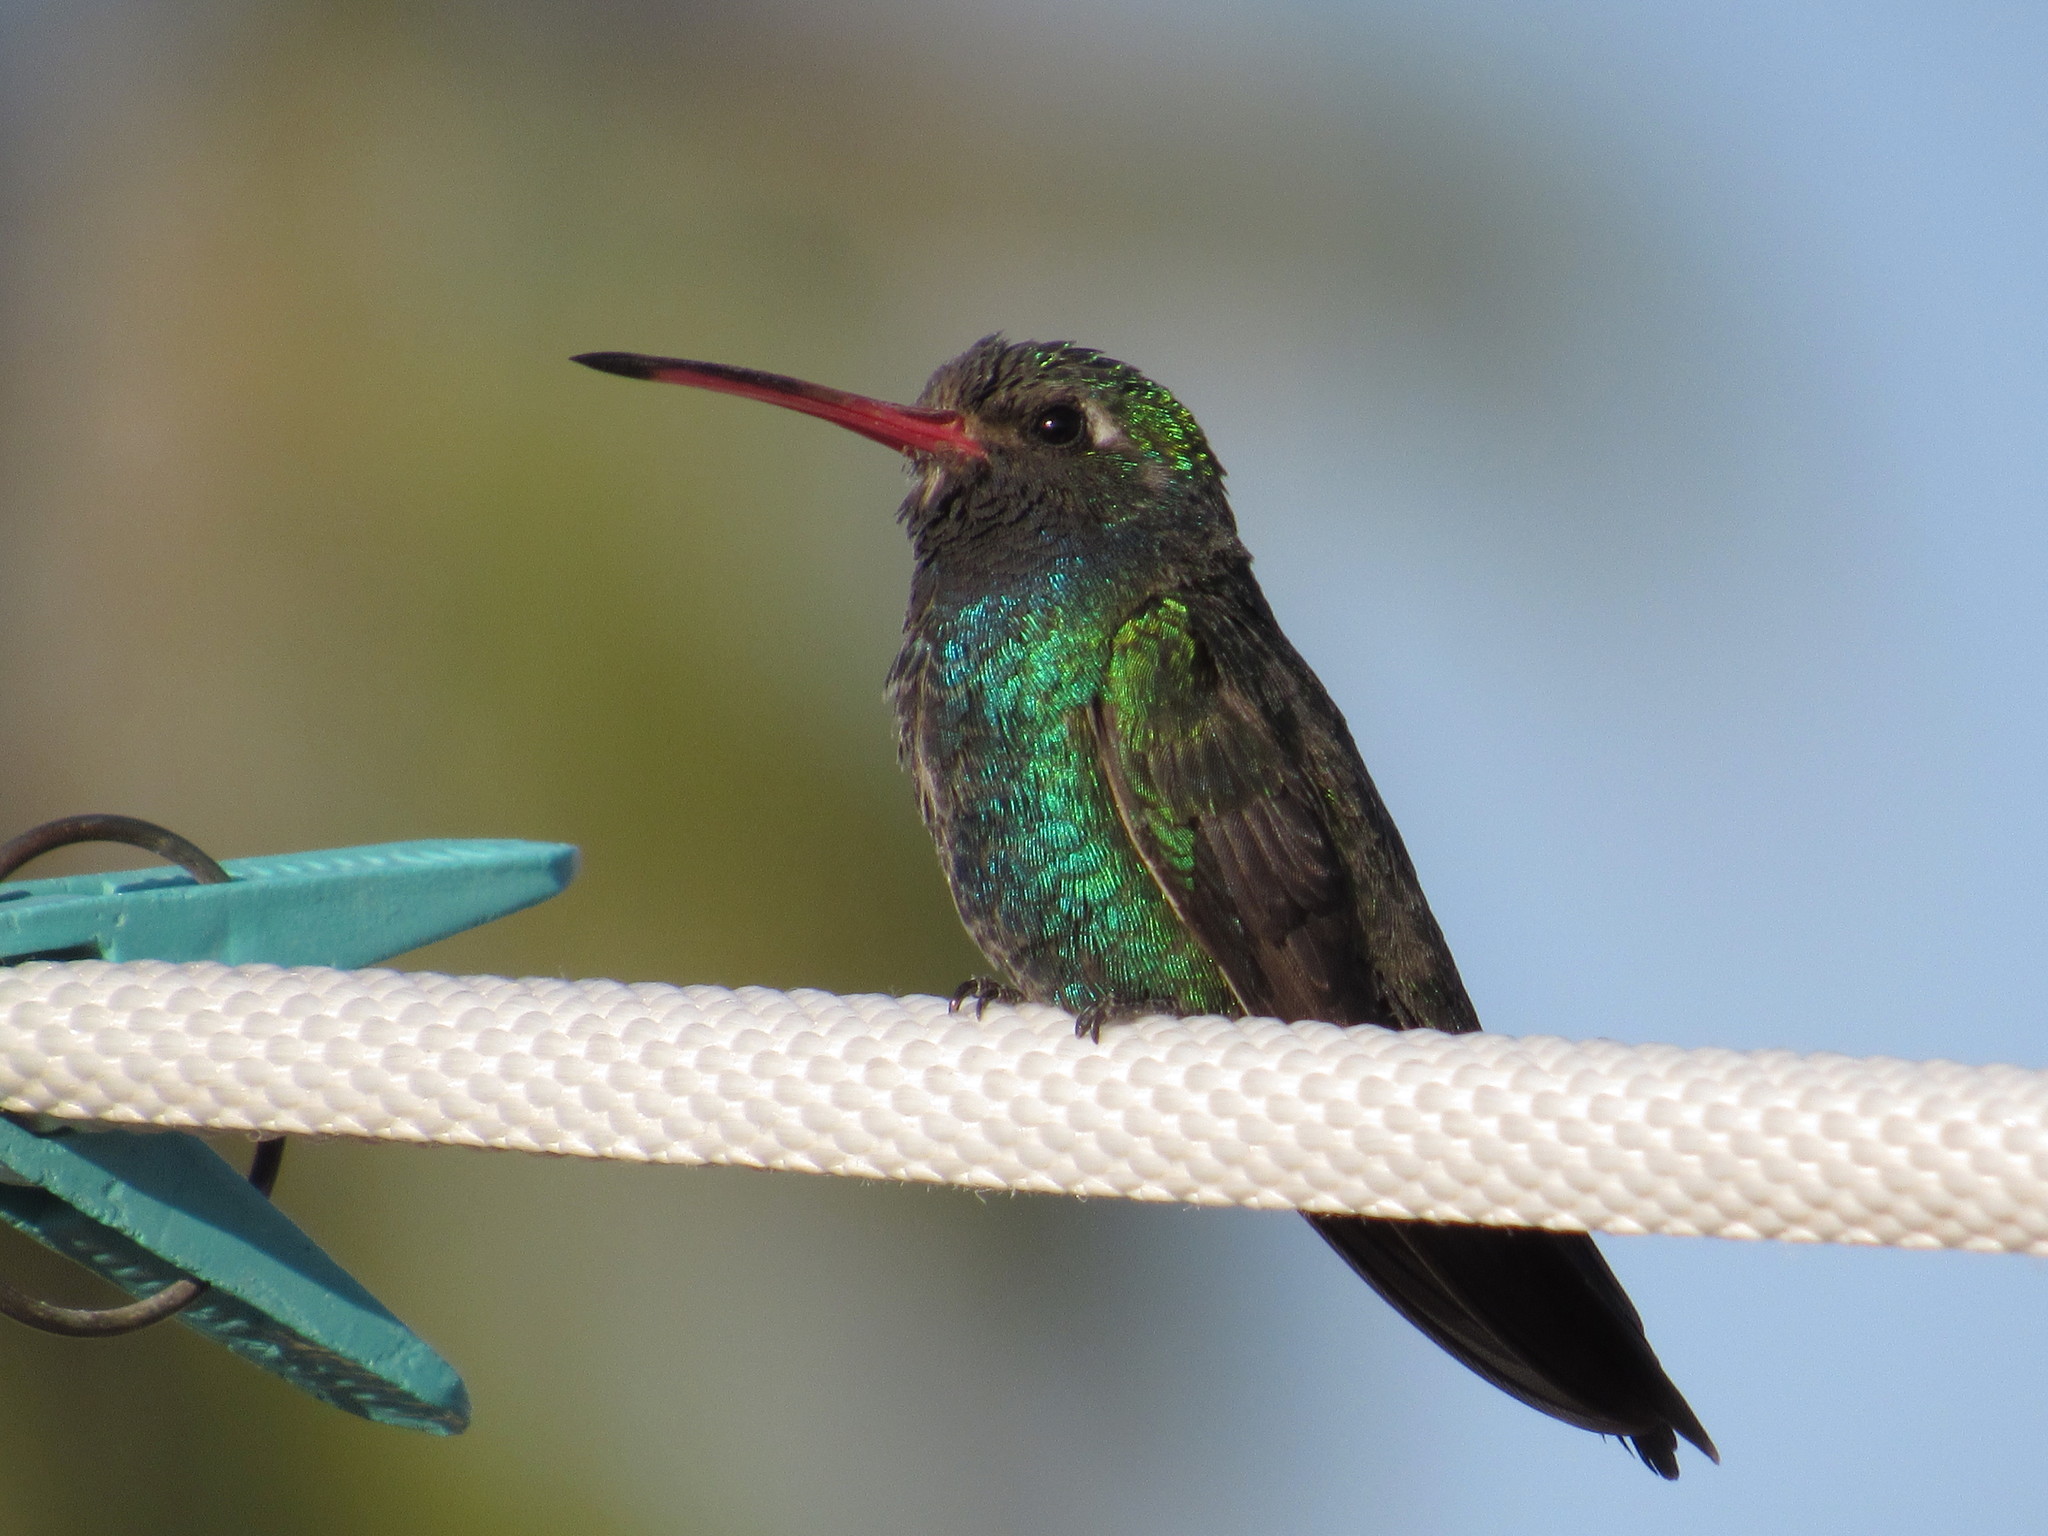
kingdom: Animalia
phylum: Chordata
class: Aves
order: Apodiformes
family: Trochilidae
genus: Cynanthus
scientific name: Cynanthus latirostris
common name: Broad-billed hummingbird
